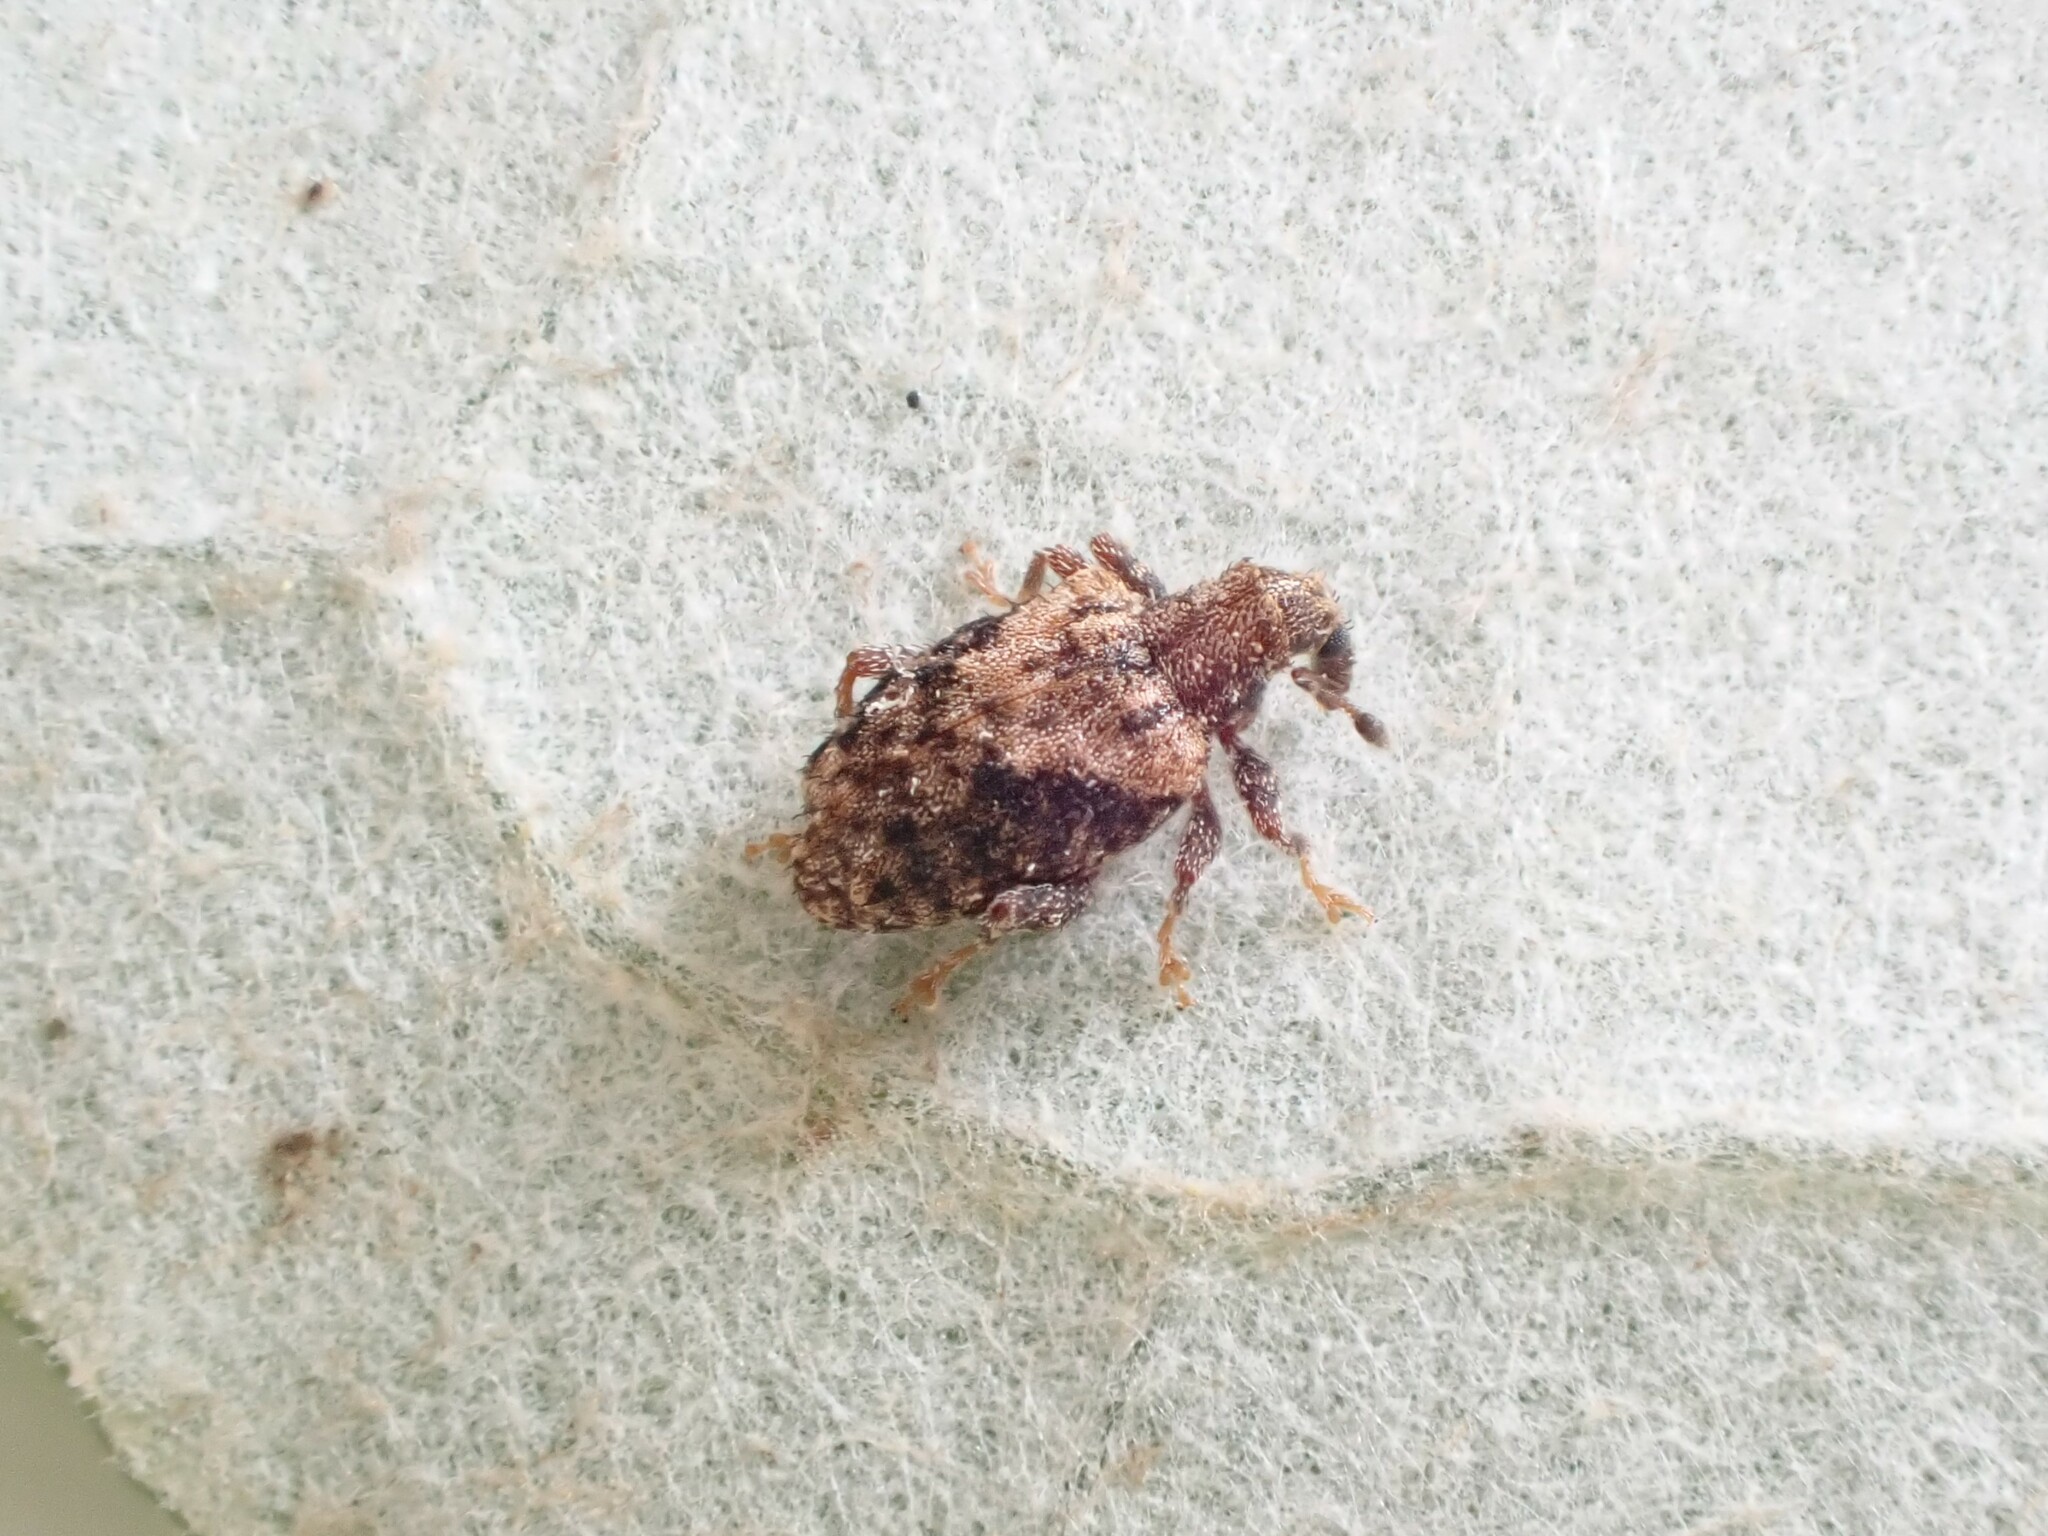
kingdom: Animalia
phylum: Arthropoda
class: Insecta
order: Coleoptera
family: Curculionidae
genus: Tysius
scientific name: Tysius bicornis
